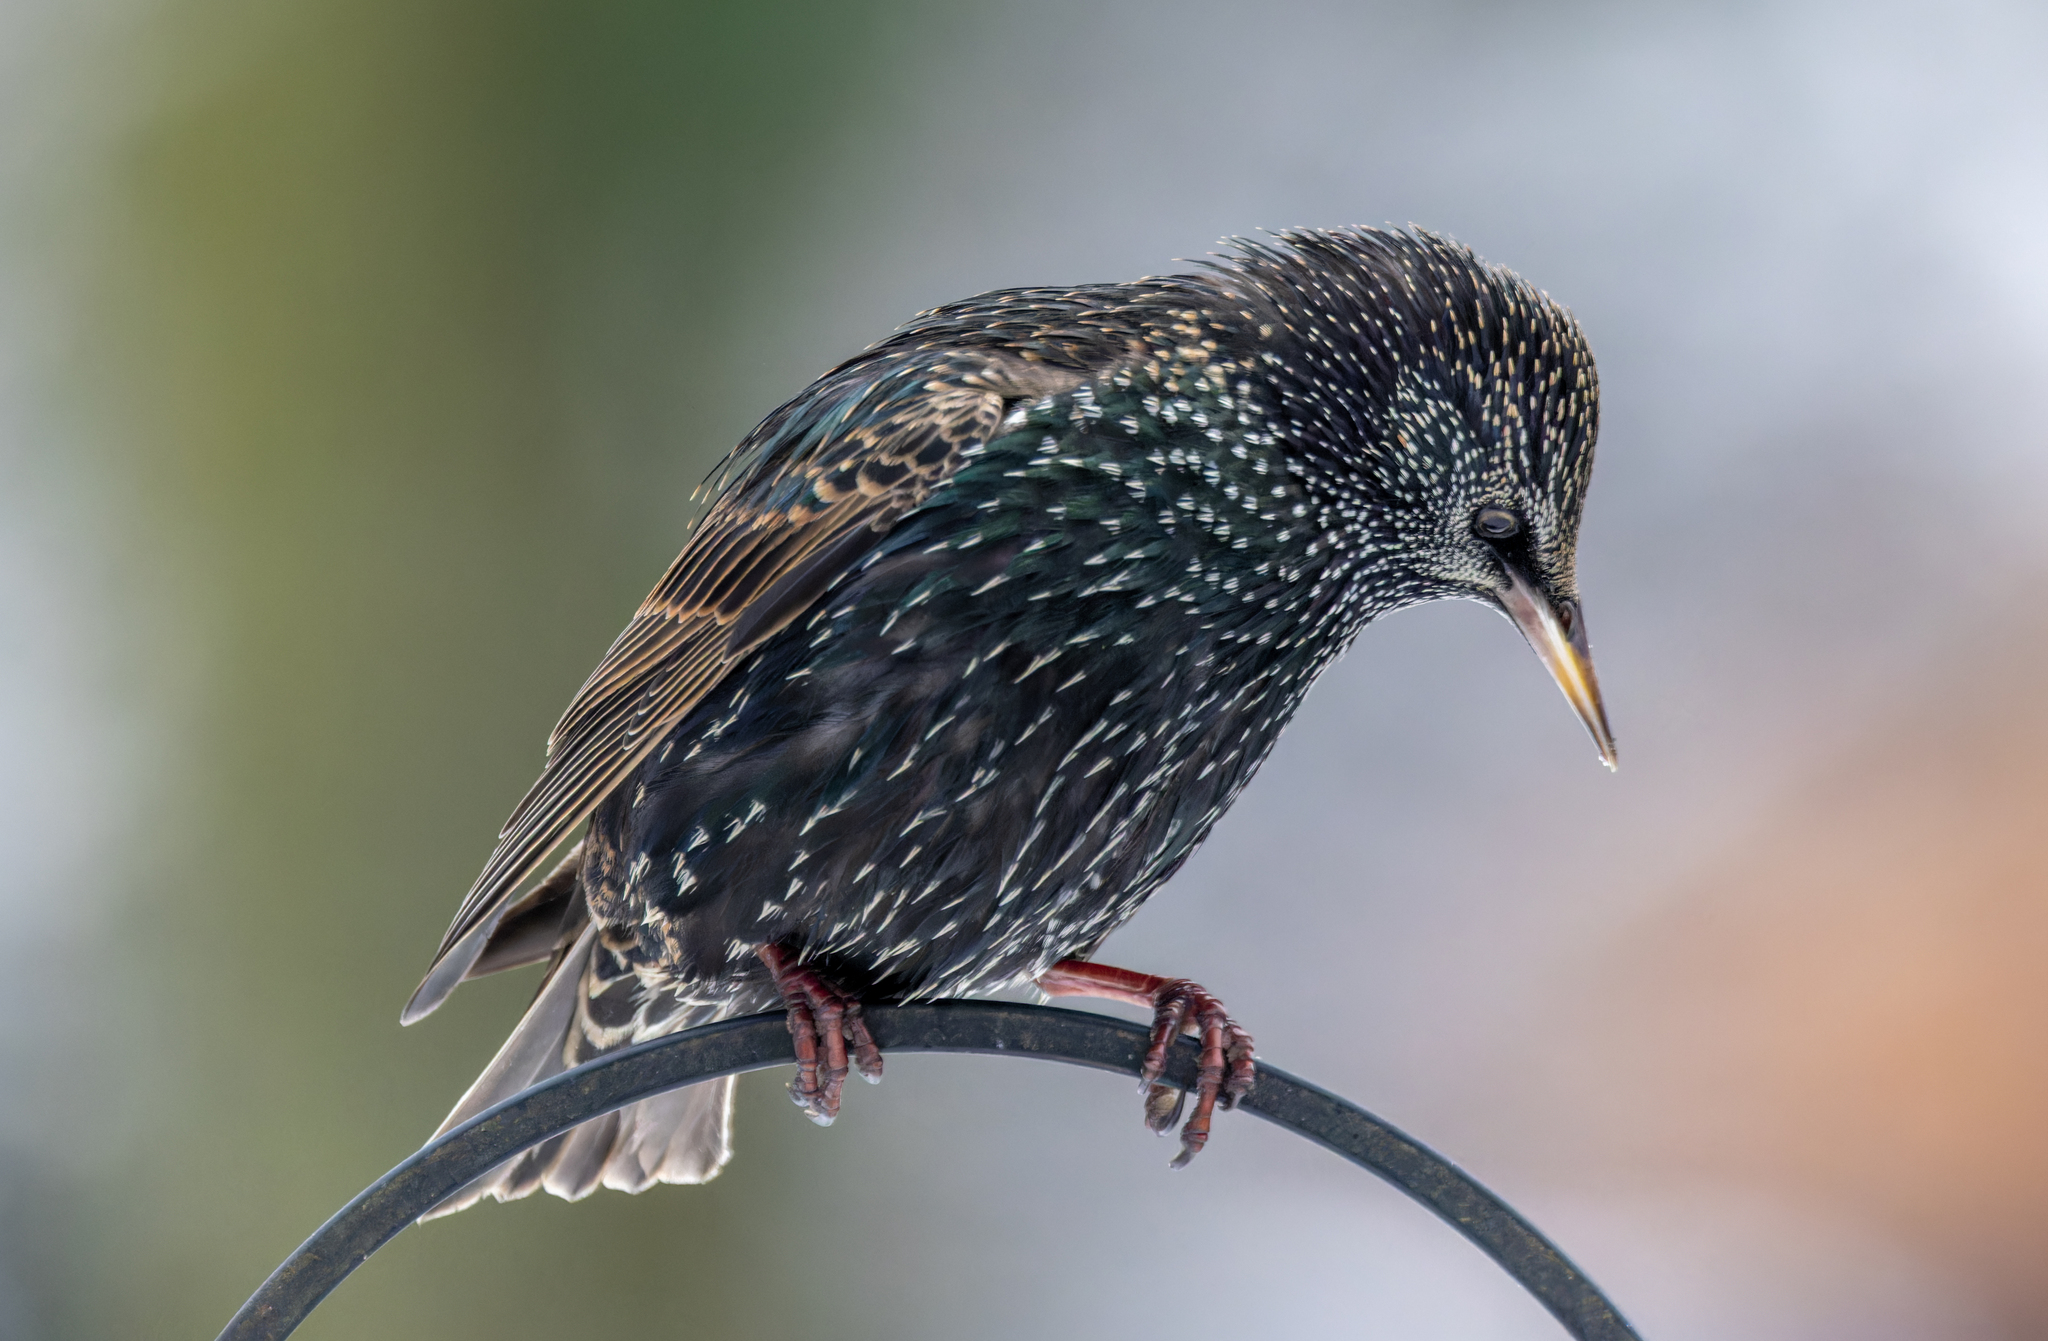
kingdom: Animalia
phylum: Chordata
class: Aves
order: Passeriformes
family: Sturnidae
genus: Sturnus
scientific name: Sturnus vulgaris
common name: Common starling
